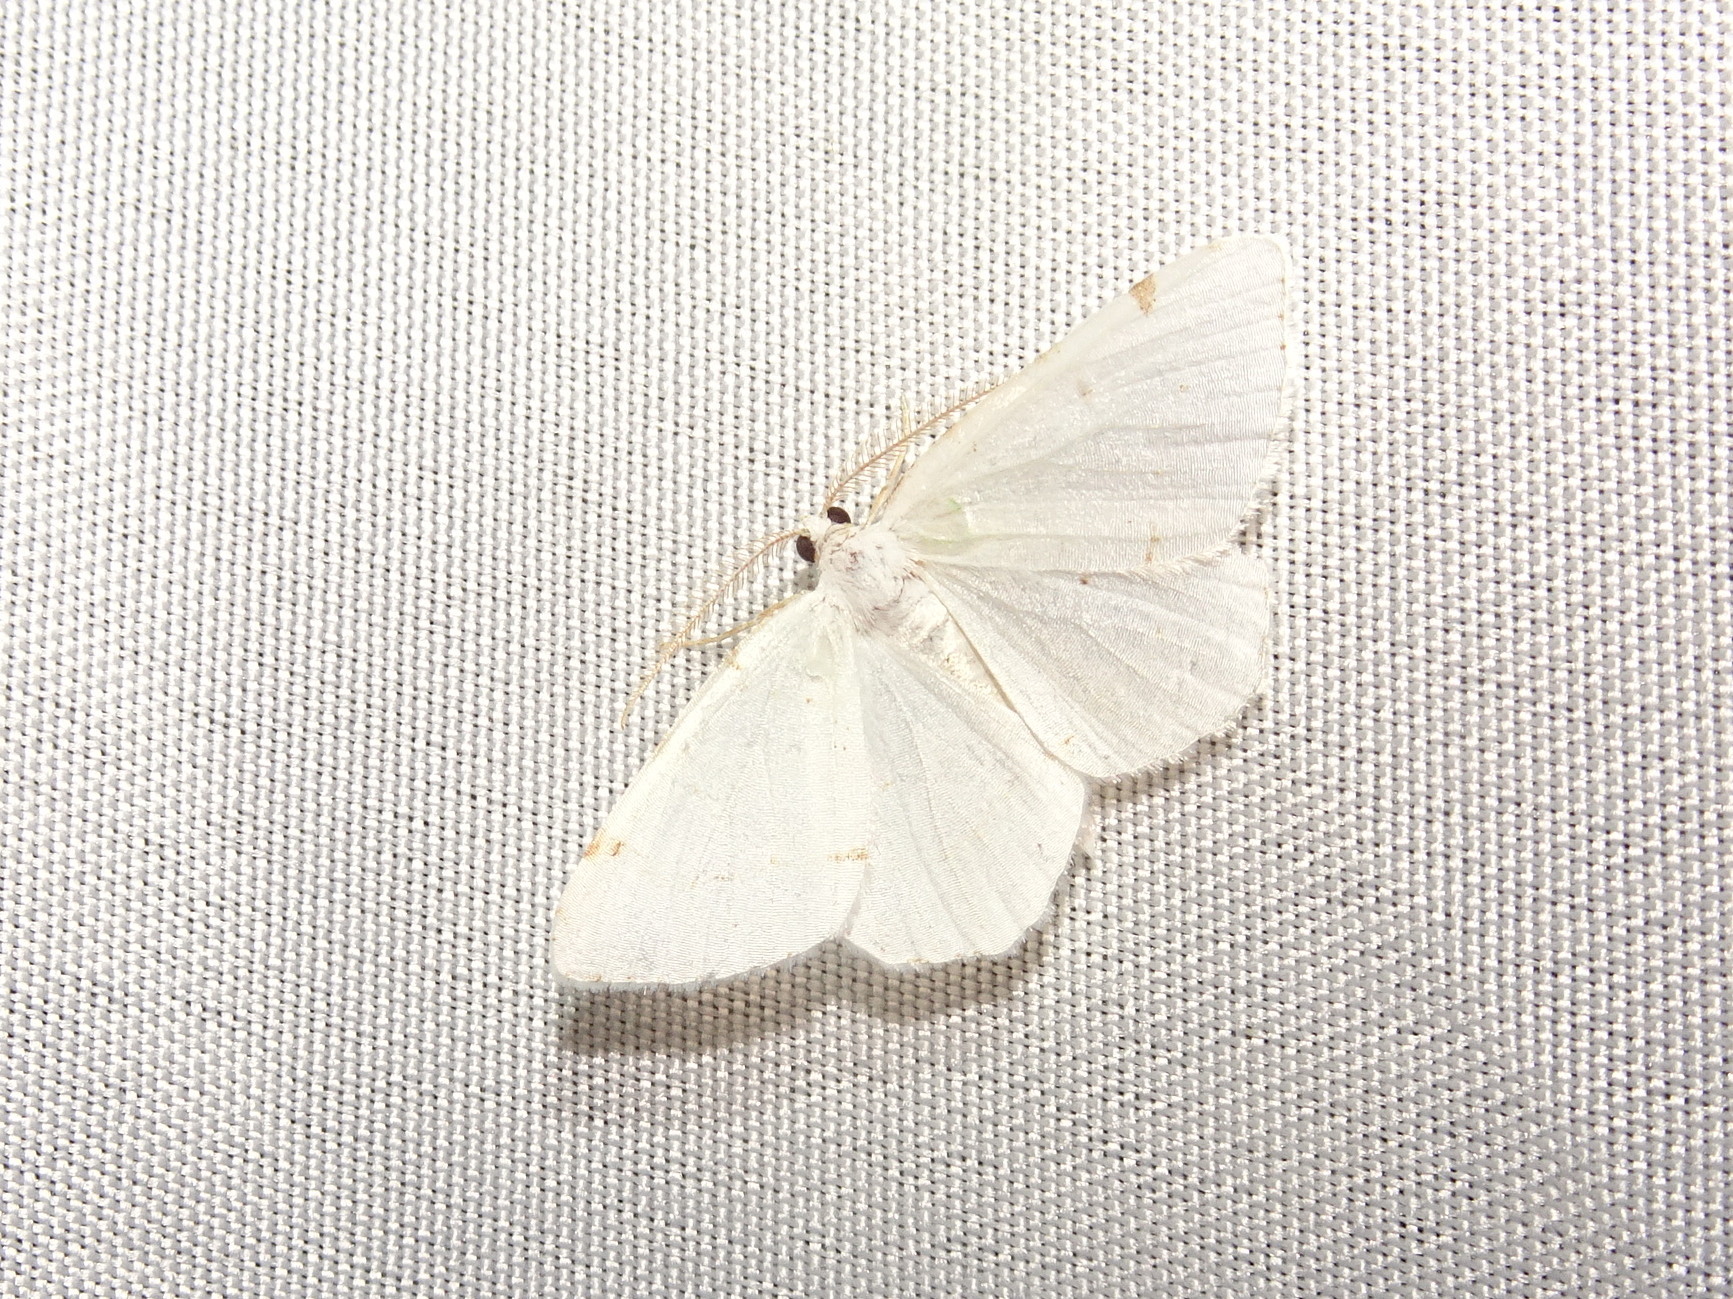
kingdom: Animalia
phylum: Arthropoda
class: Insecta
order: Lepidoptera
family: Geometridae
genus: Macaria
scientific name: Macaria pustularia
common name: Lesser maple spanworm moth
